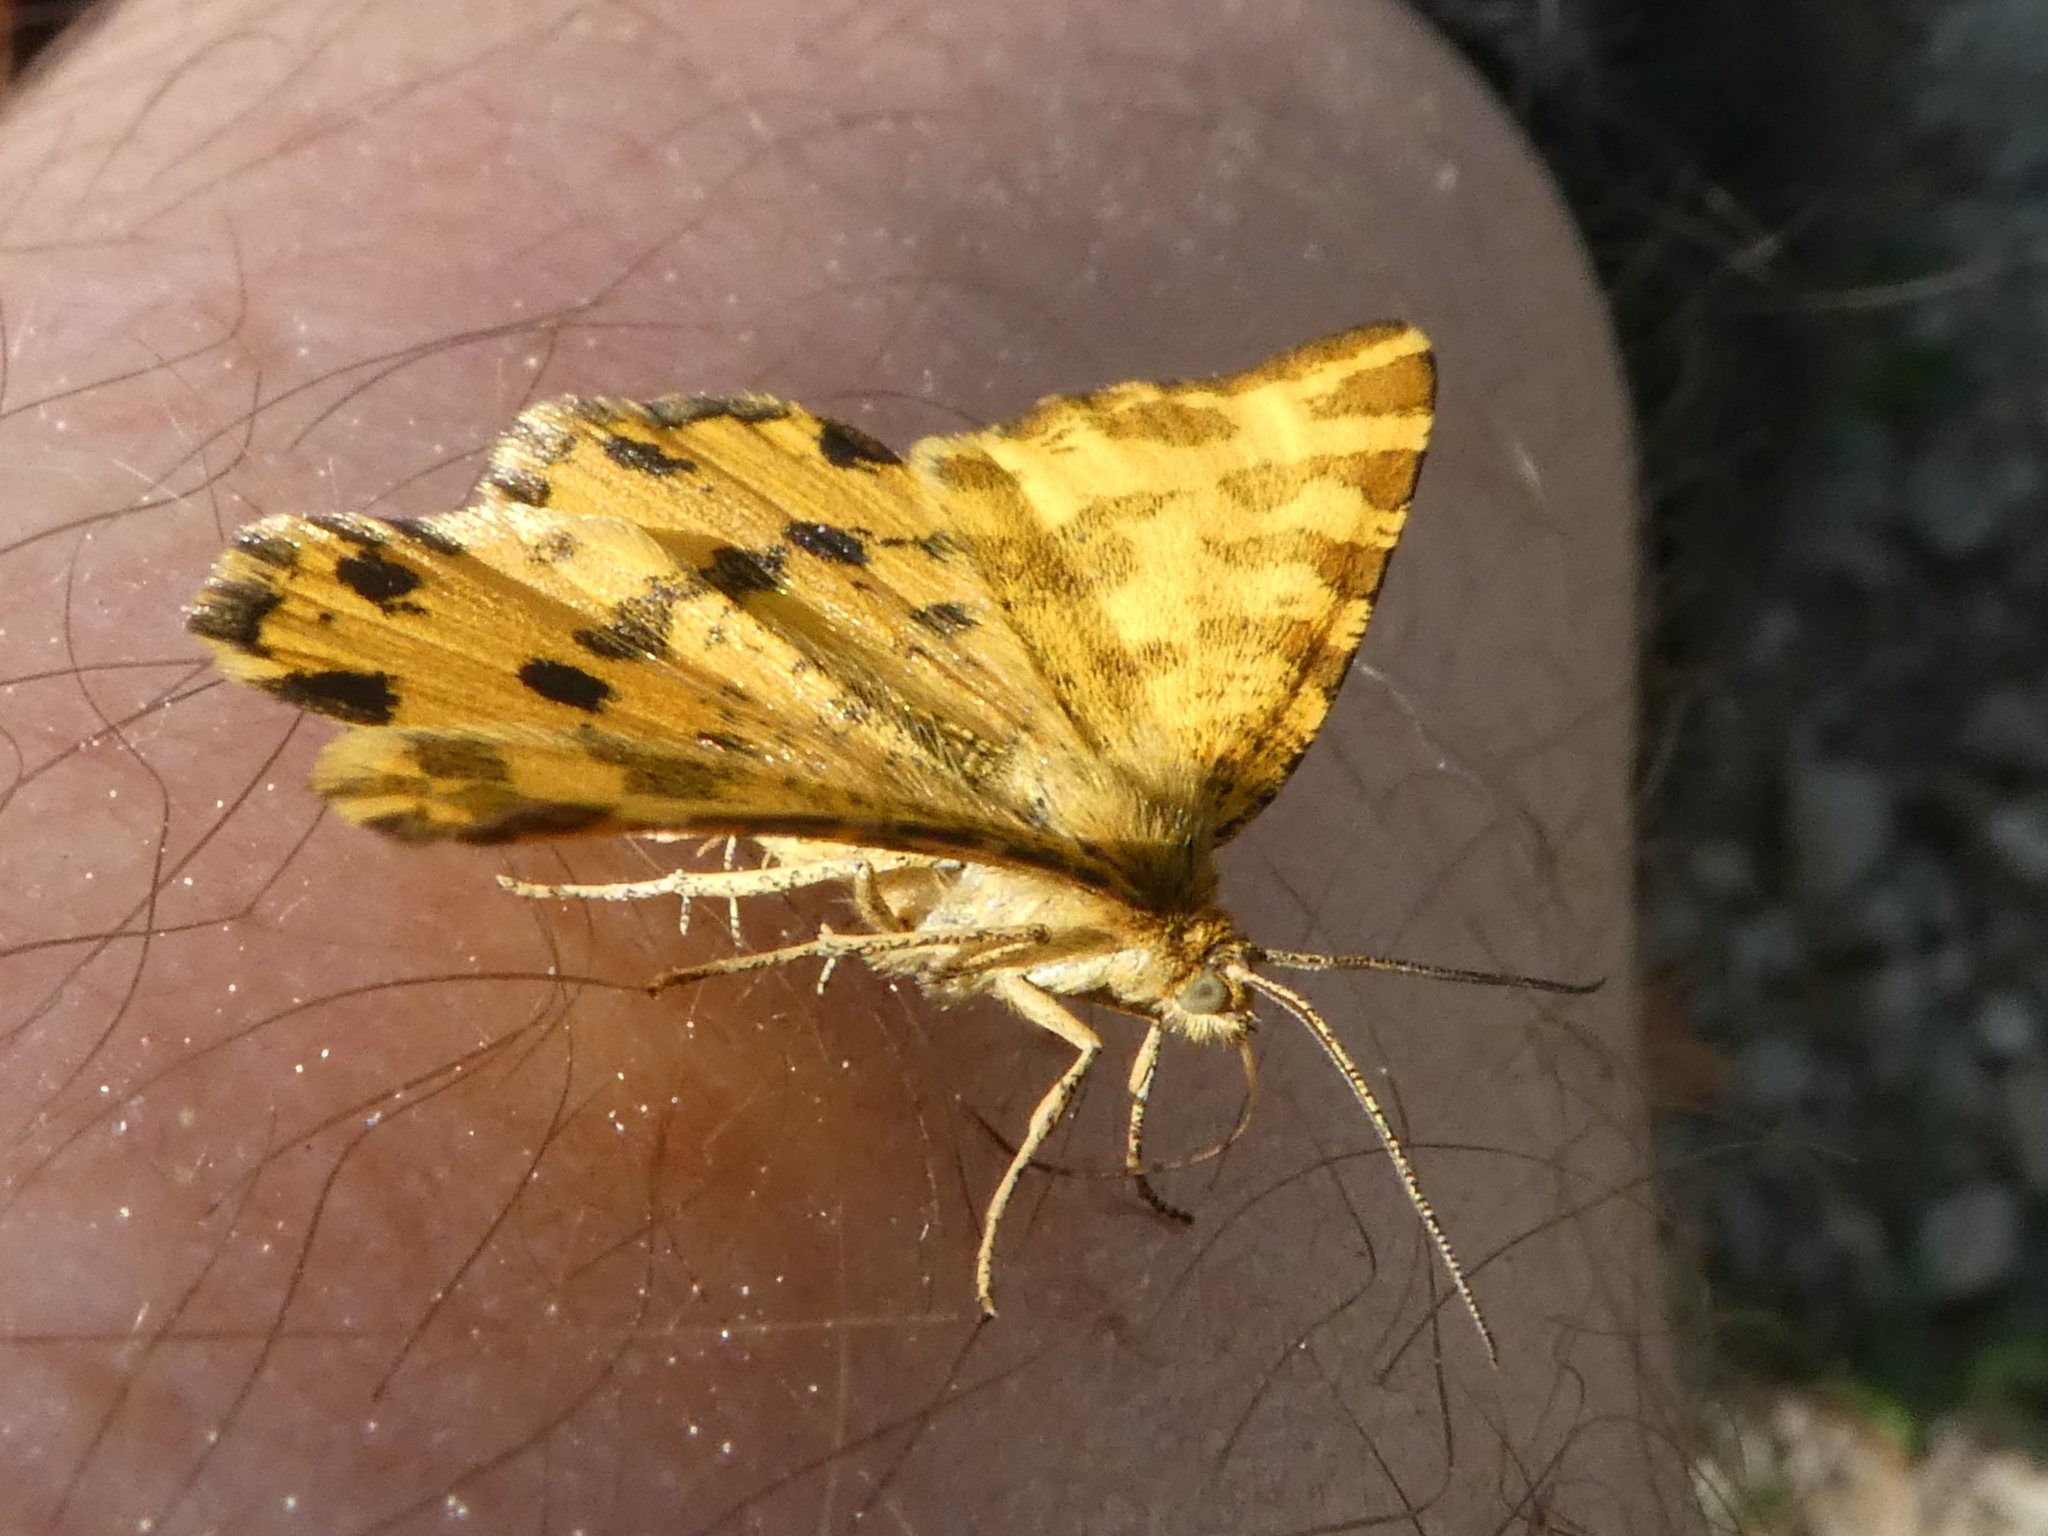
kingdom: Animalia
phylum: Arthropoda
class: Insecta
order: Lepidoptera
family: Geometridae
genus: Pseudopanthera
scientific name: Pseudopanthera macularia
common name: Speckled yellow
